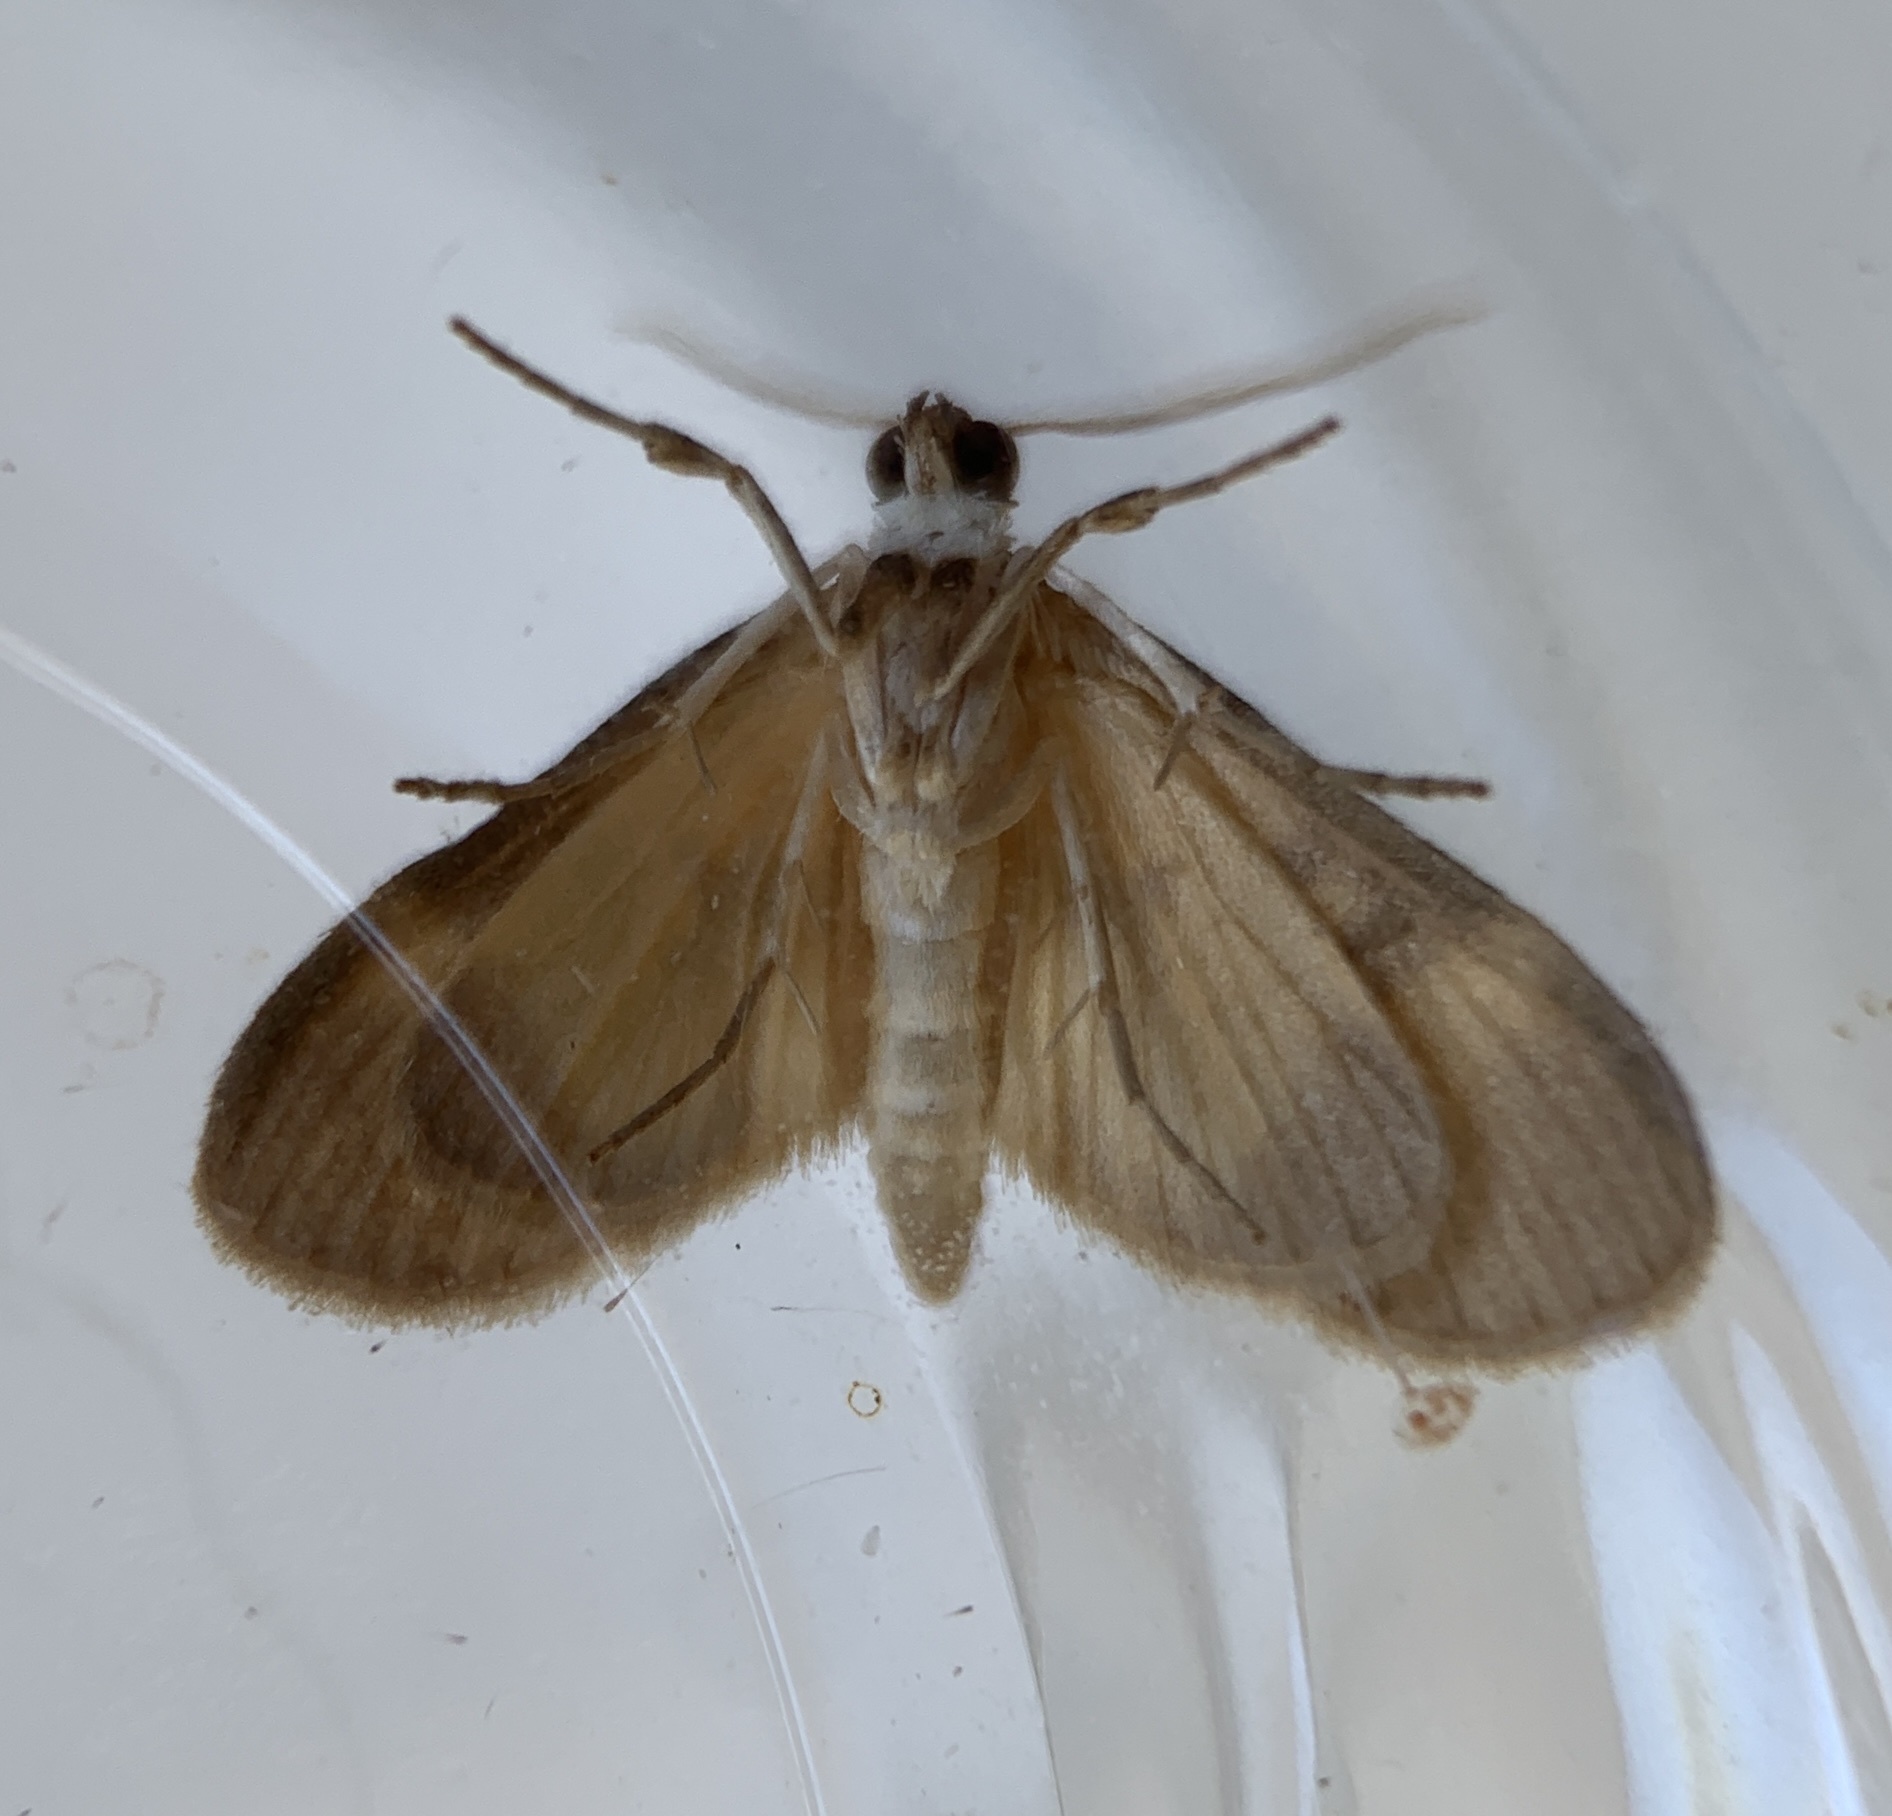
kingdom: Animalia
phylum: Arthropoda
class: Insecta
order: Lepidoptera
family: Crambidae
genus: Lygropia
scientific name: Lygropia fusalis
